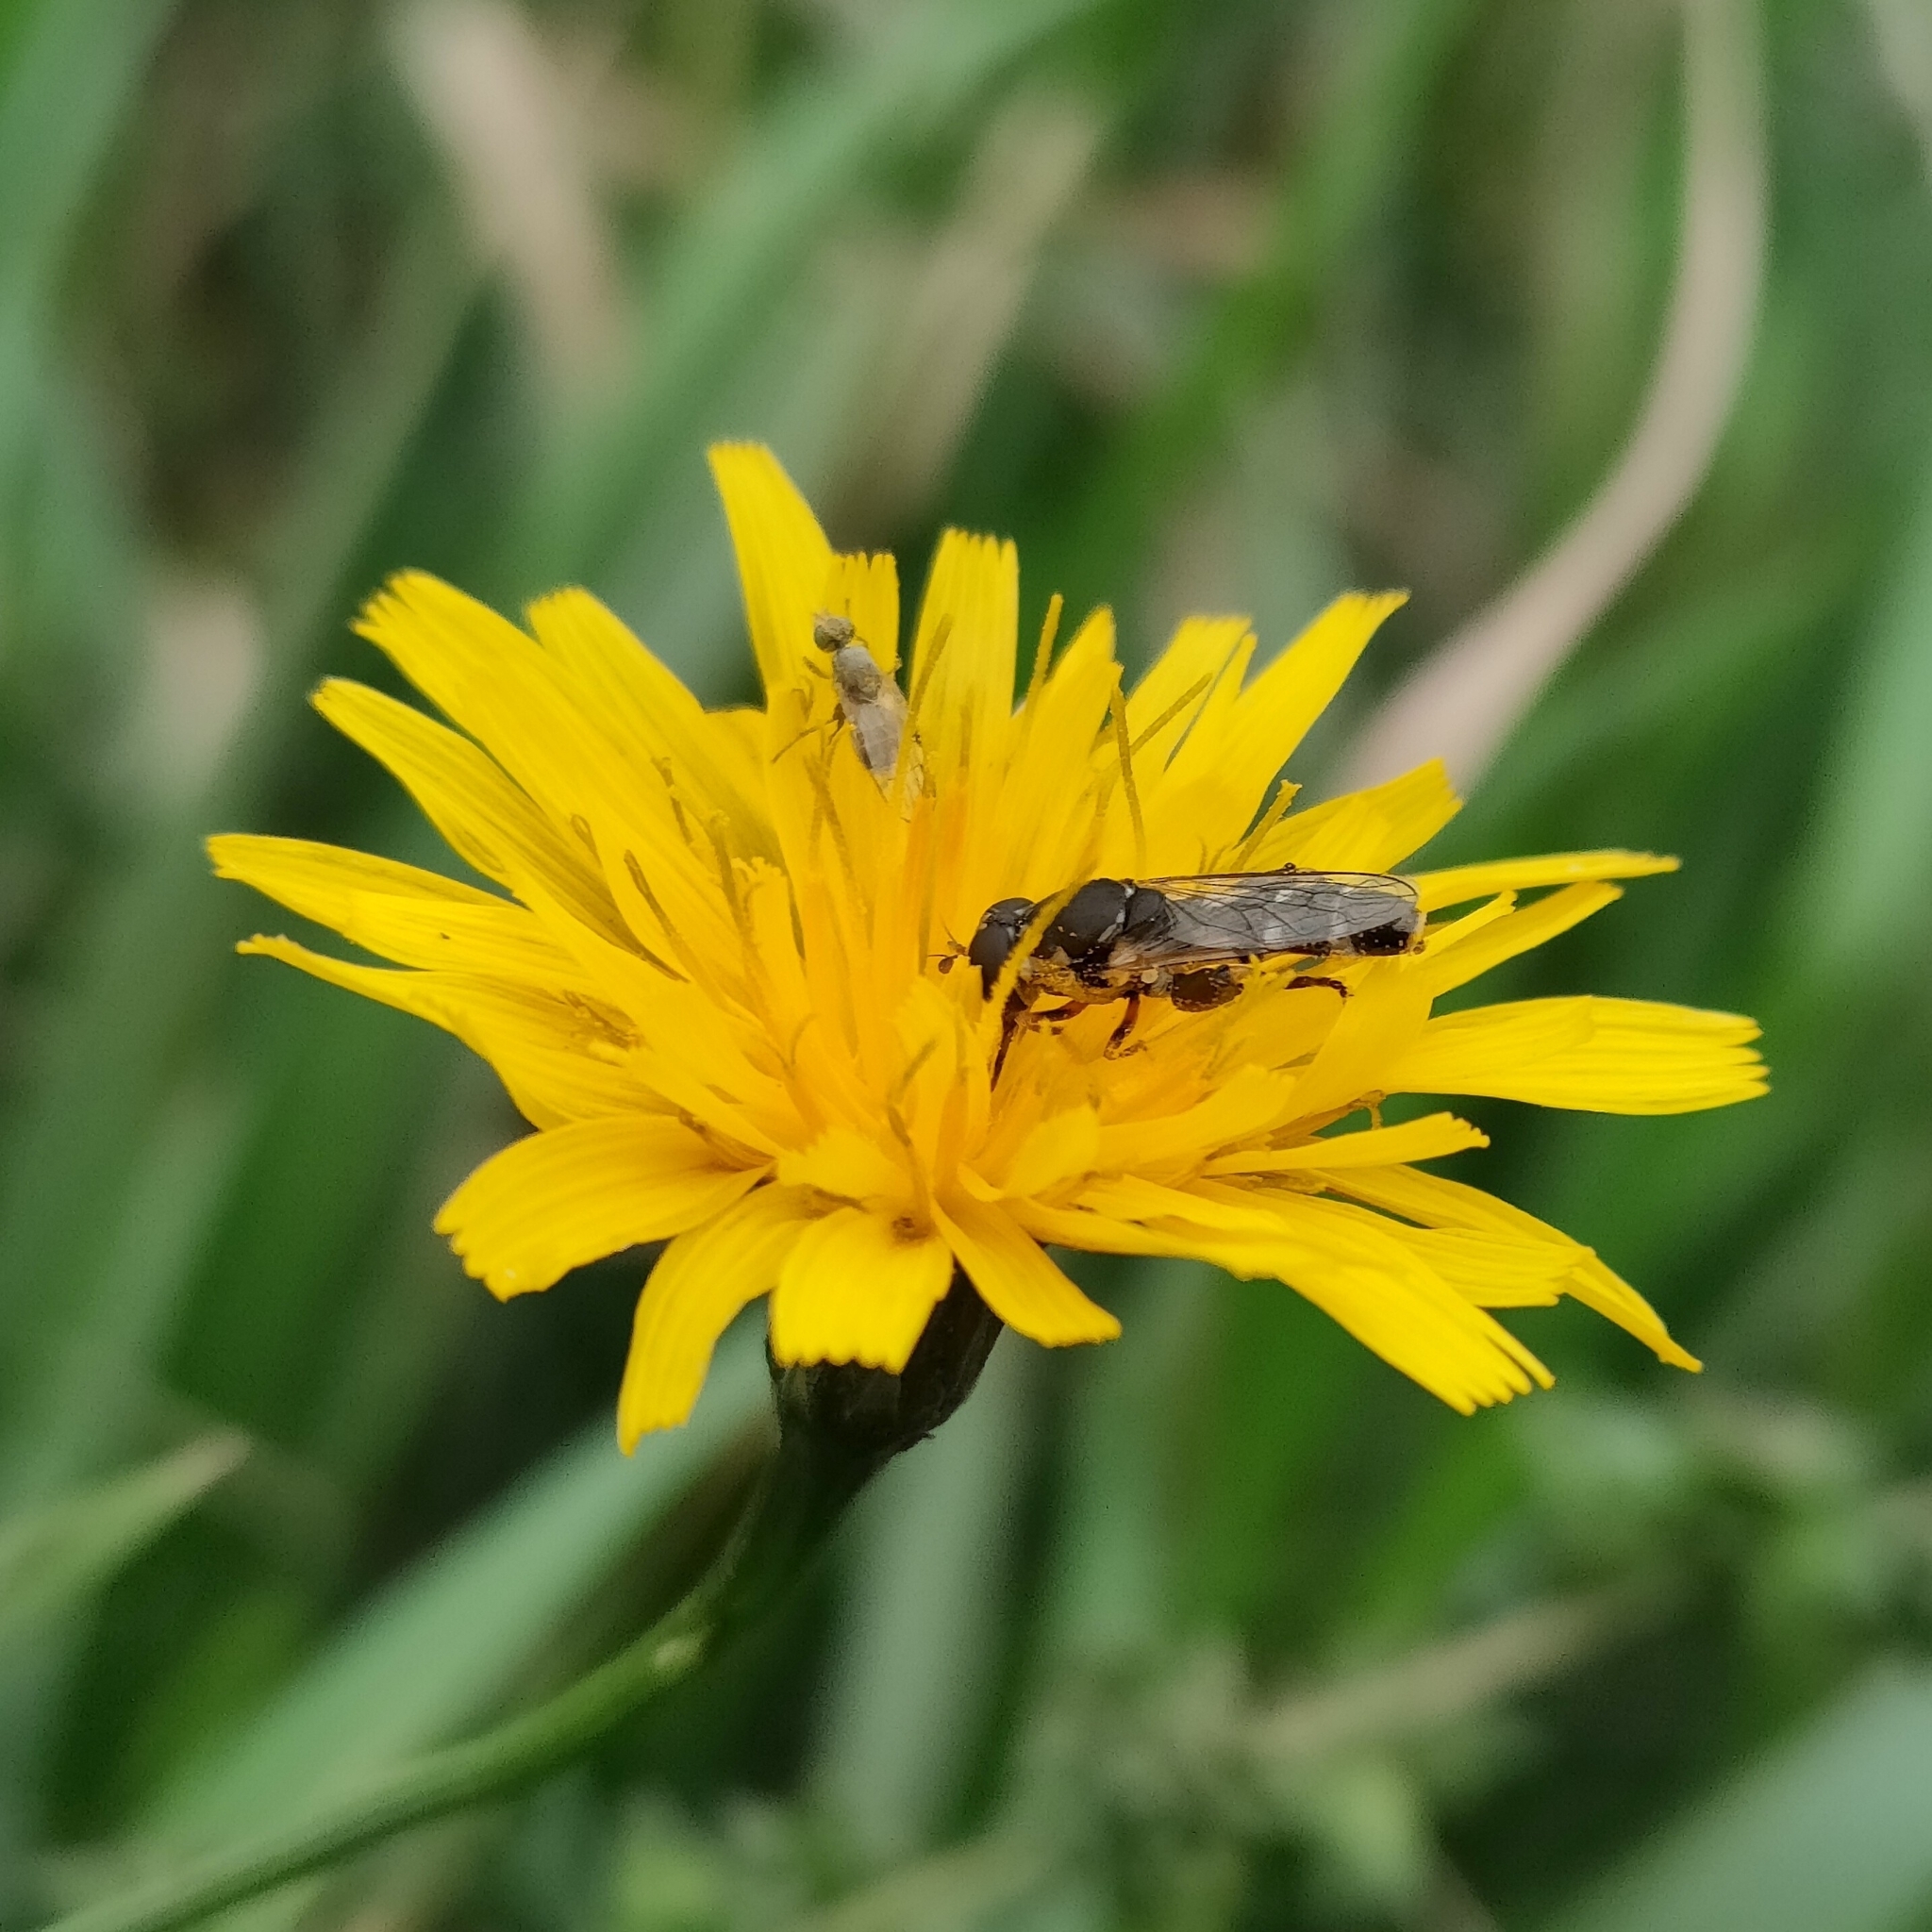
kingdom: Animalia
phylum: Arthropoda
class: Insecta
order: Diptera
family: Tephritidae
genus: Ensina
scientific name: Ensina sonchi
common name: Sonchus fly
